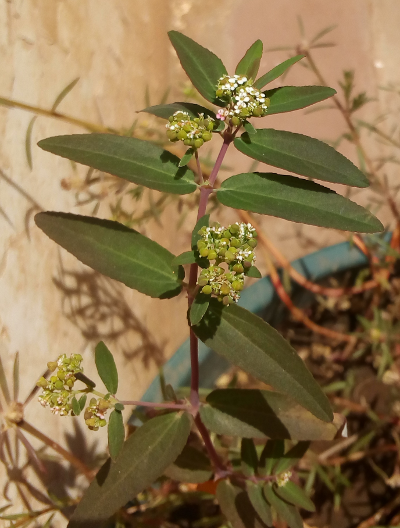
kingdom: Plantae
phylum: Tracheophyta
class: Magnoliopsida
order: Malpighiales
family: Euphorbiaceae
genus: Euphorbia
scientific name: Euphorbia hypericifolia
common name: Graceful sandmat
